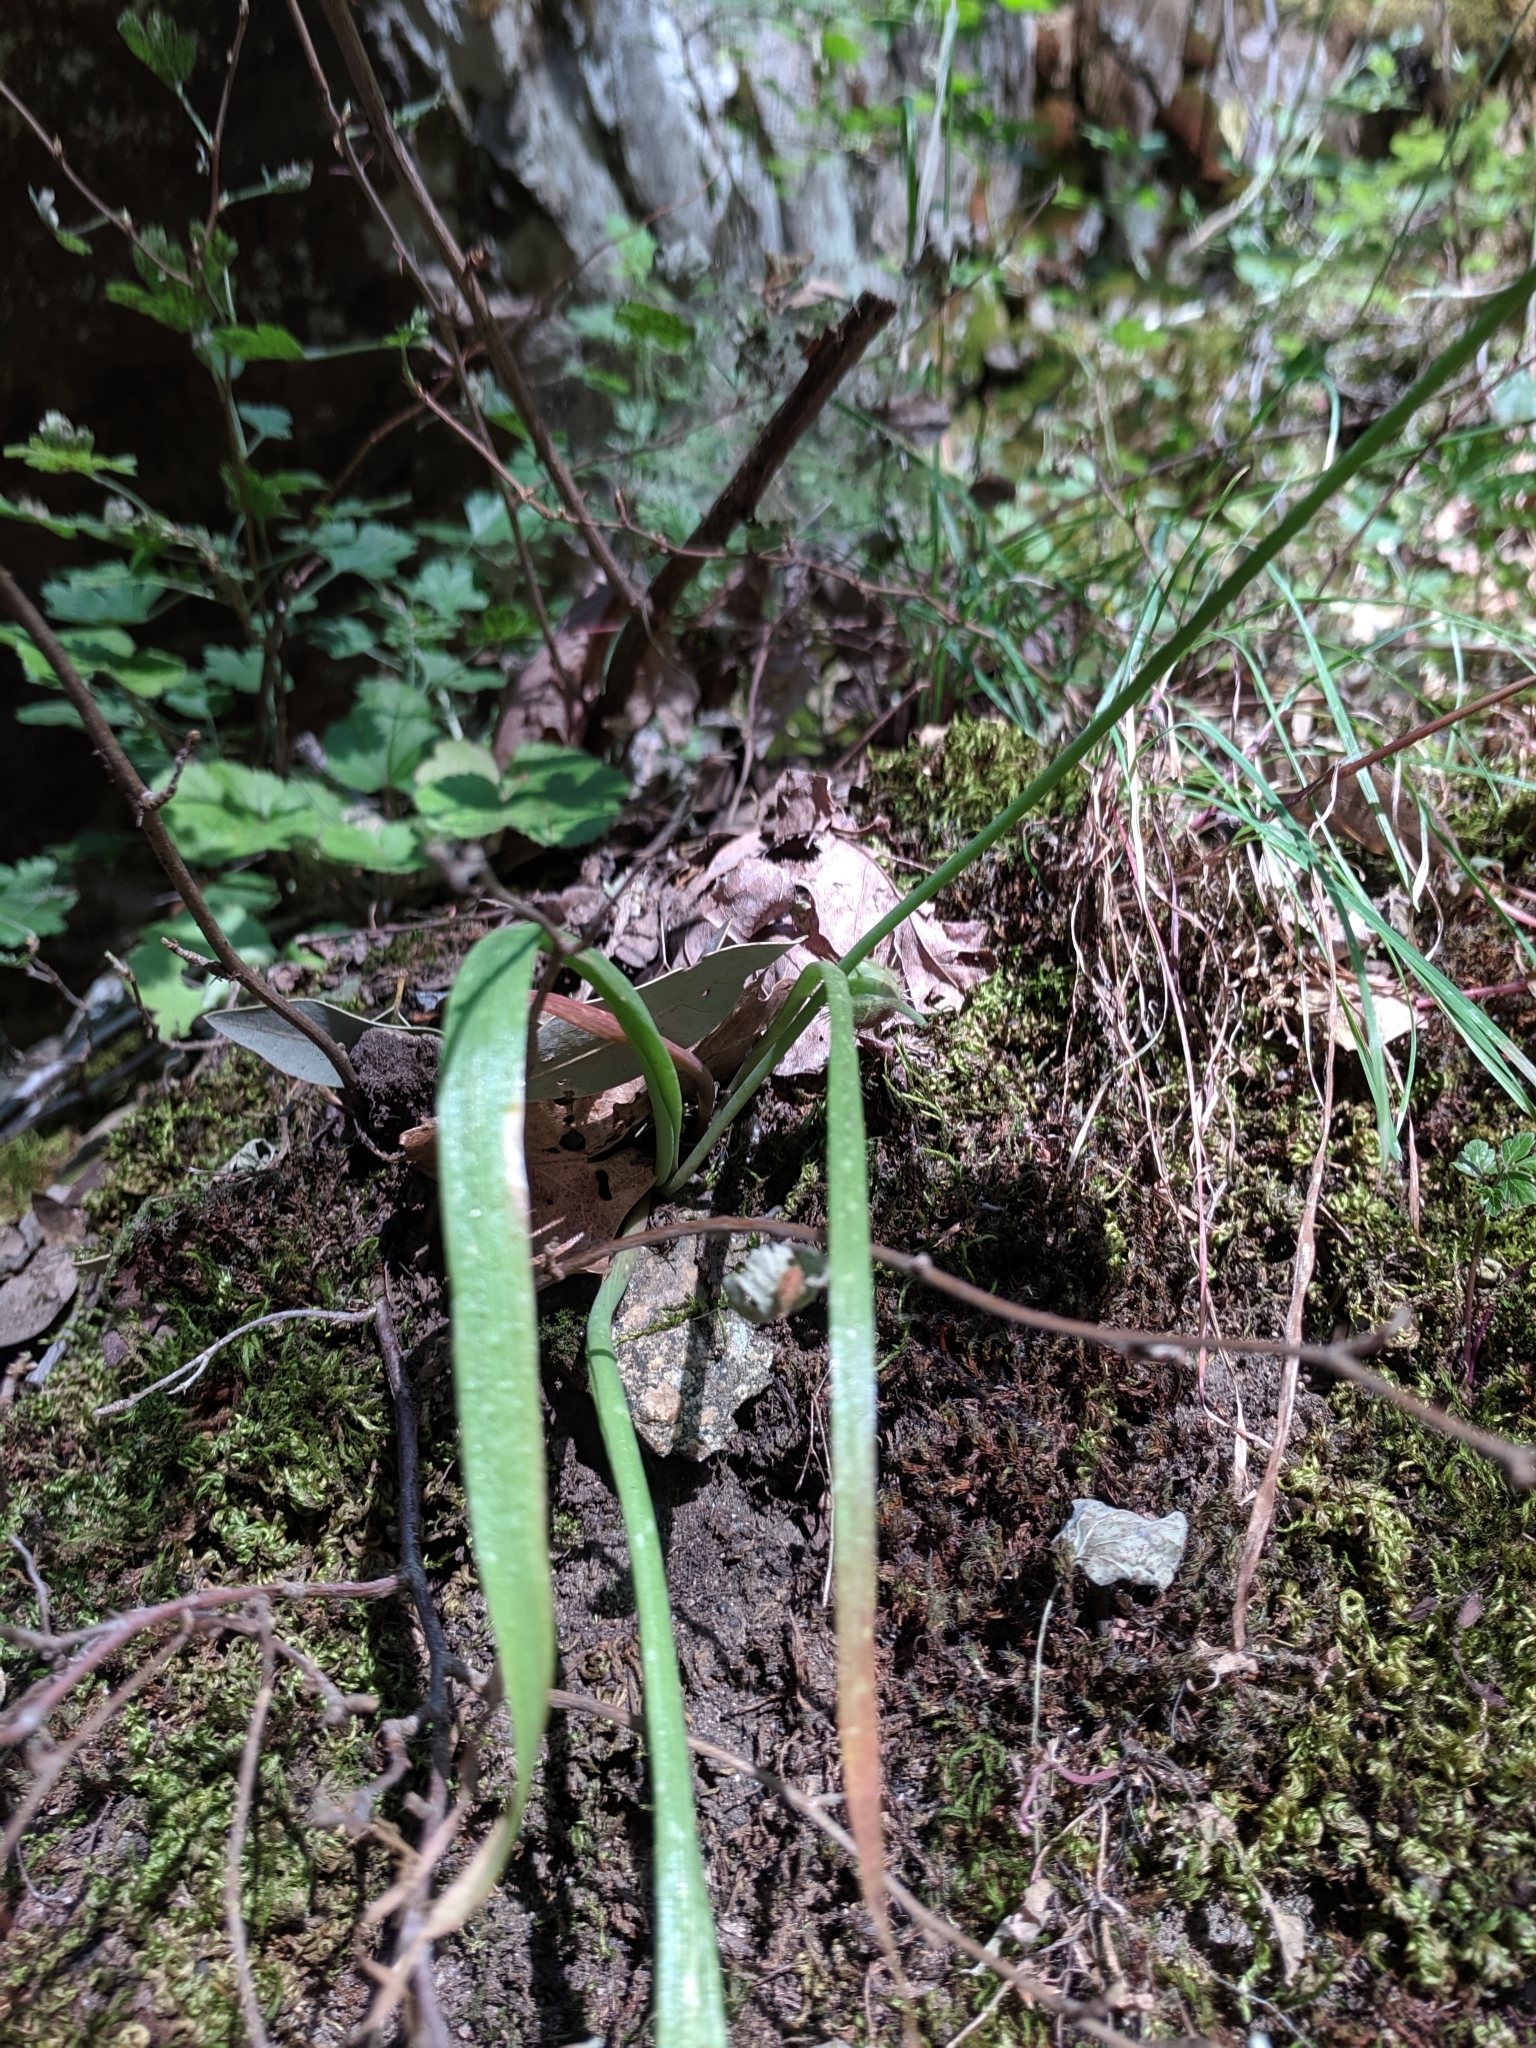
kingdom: Plantae
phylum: Tracheophyta
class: Liliopsida
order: Asparagales
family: Amaryllidaceae
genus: Allium
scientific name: Allium membranaceum
